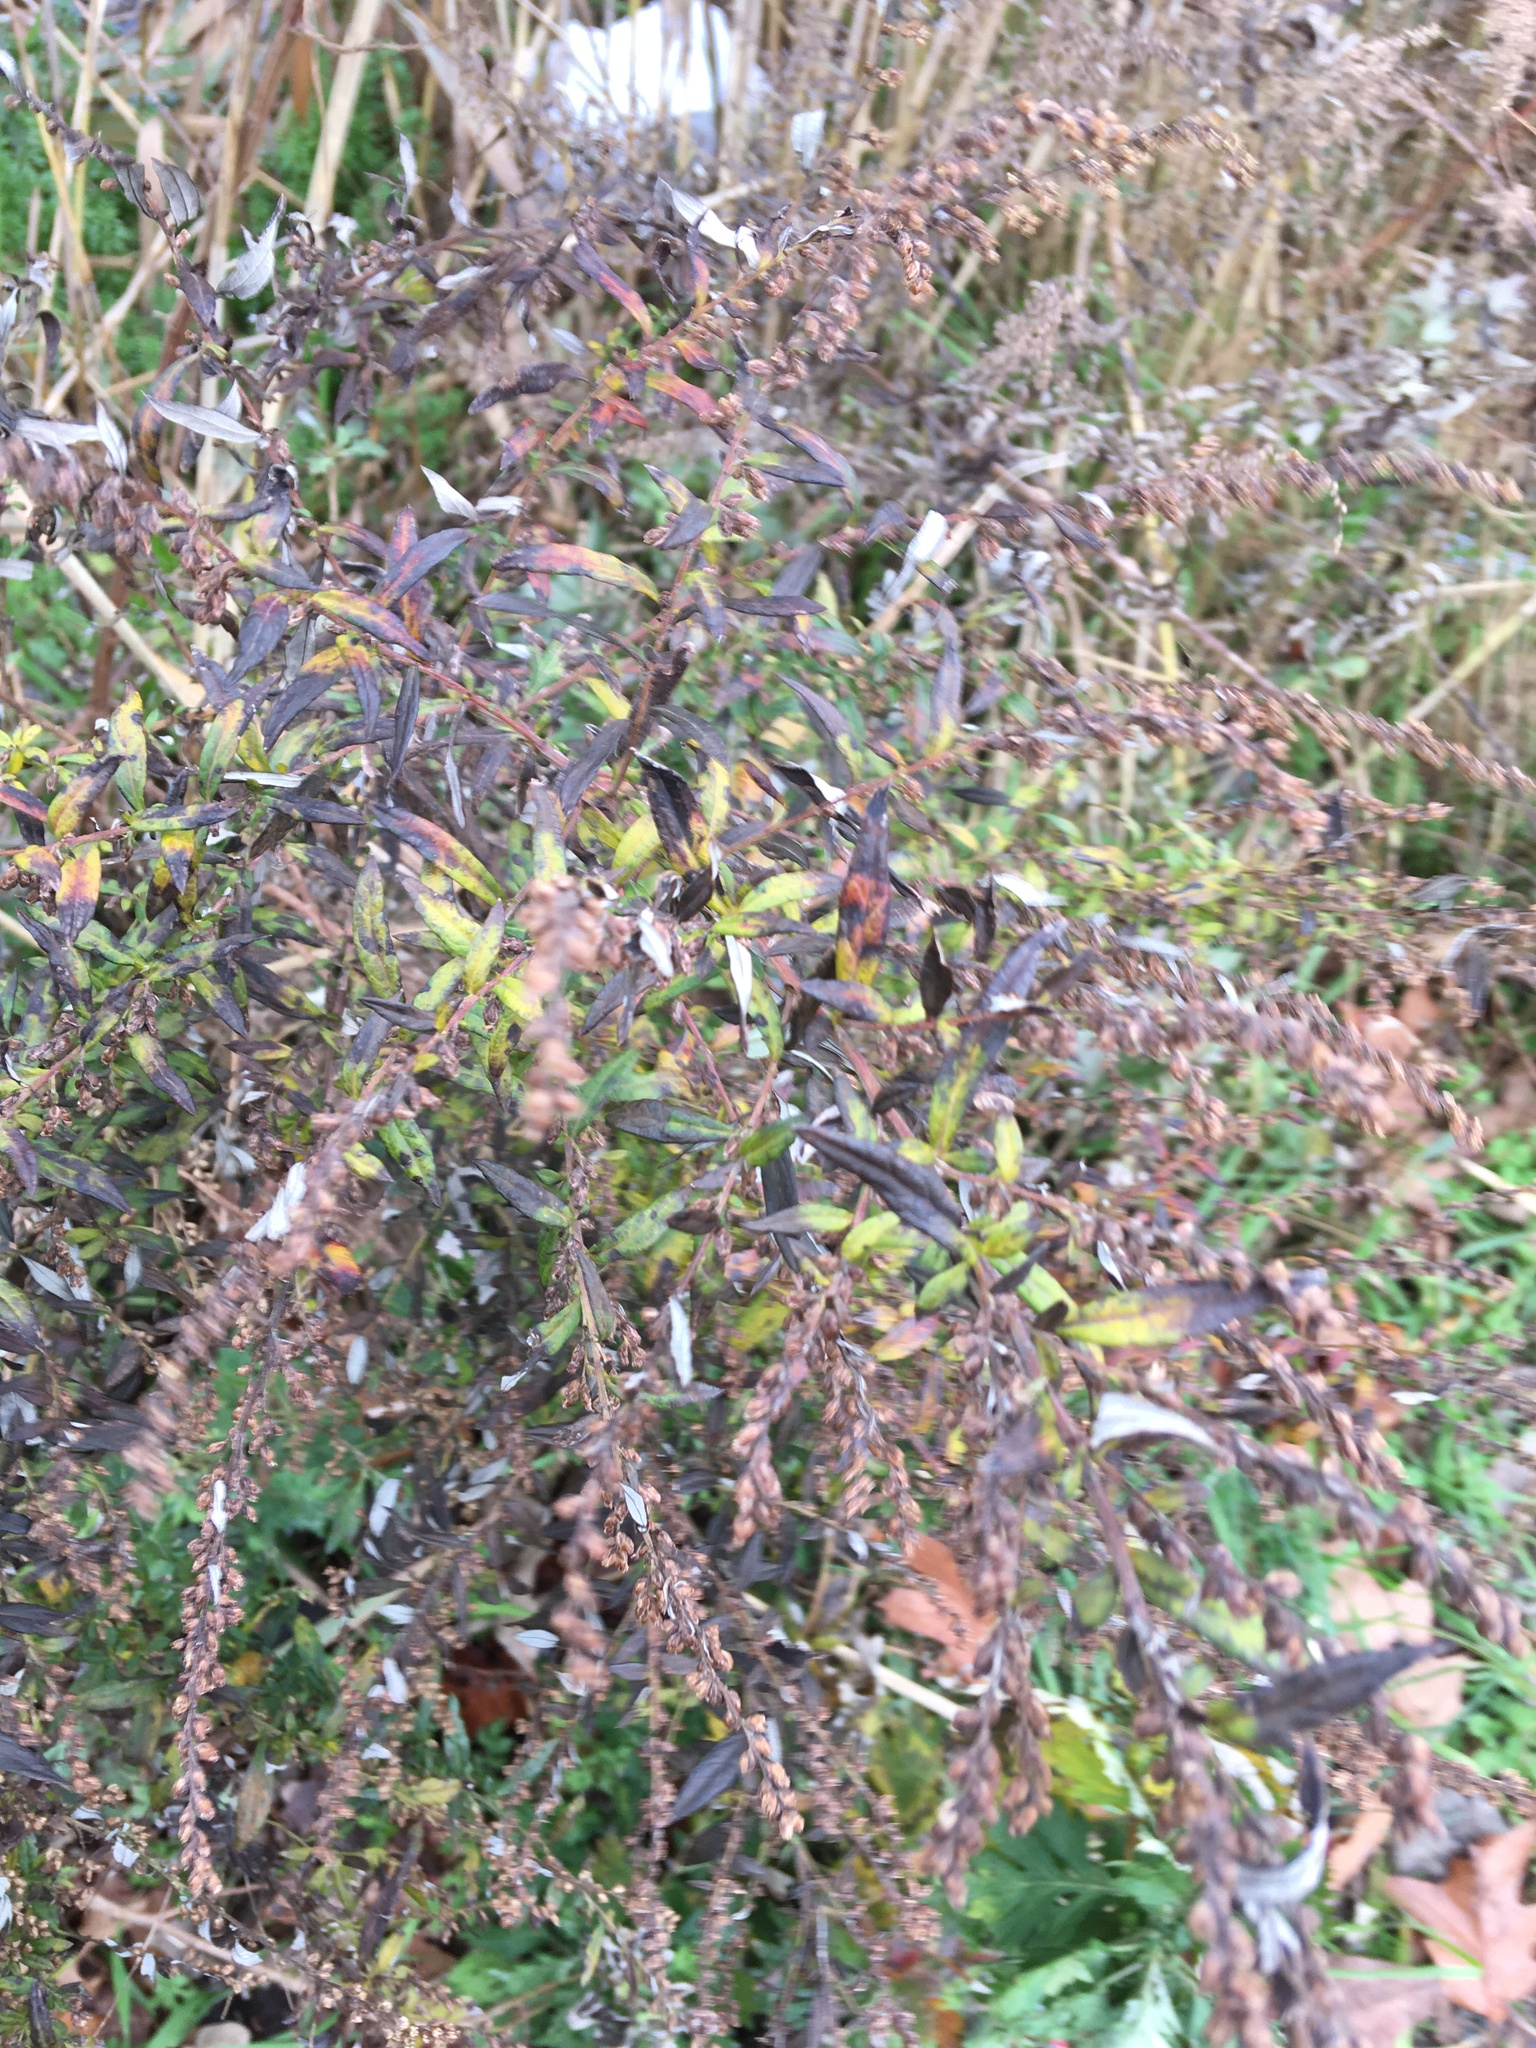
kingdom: Plantae
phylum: Tracheophyta
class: Magnoliopsida
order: Asterales
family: Asteraceae
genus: Artemisia
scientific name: Artemisia vulgaris
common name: Mugwort
